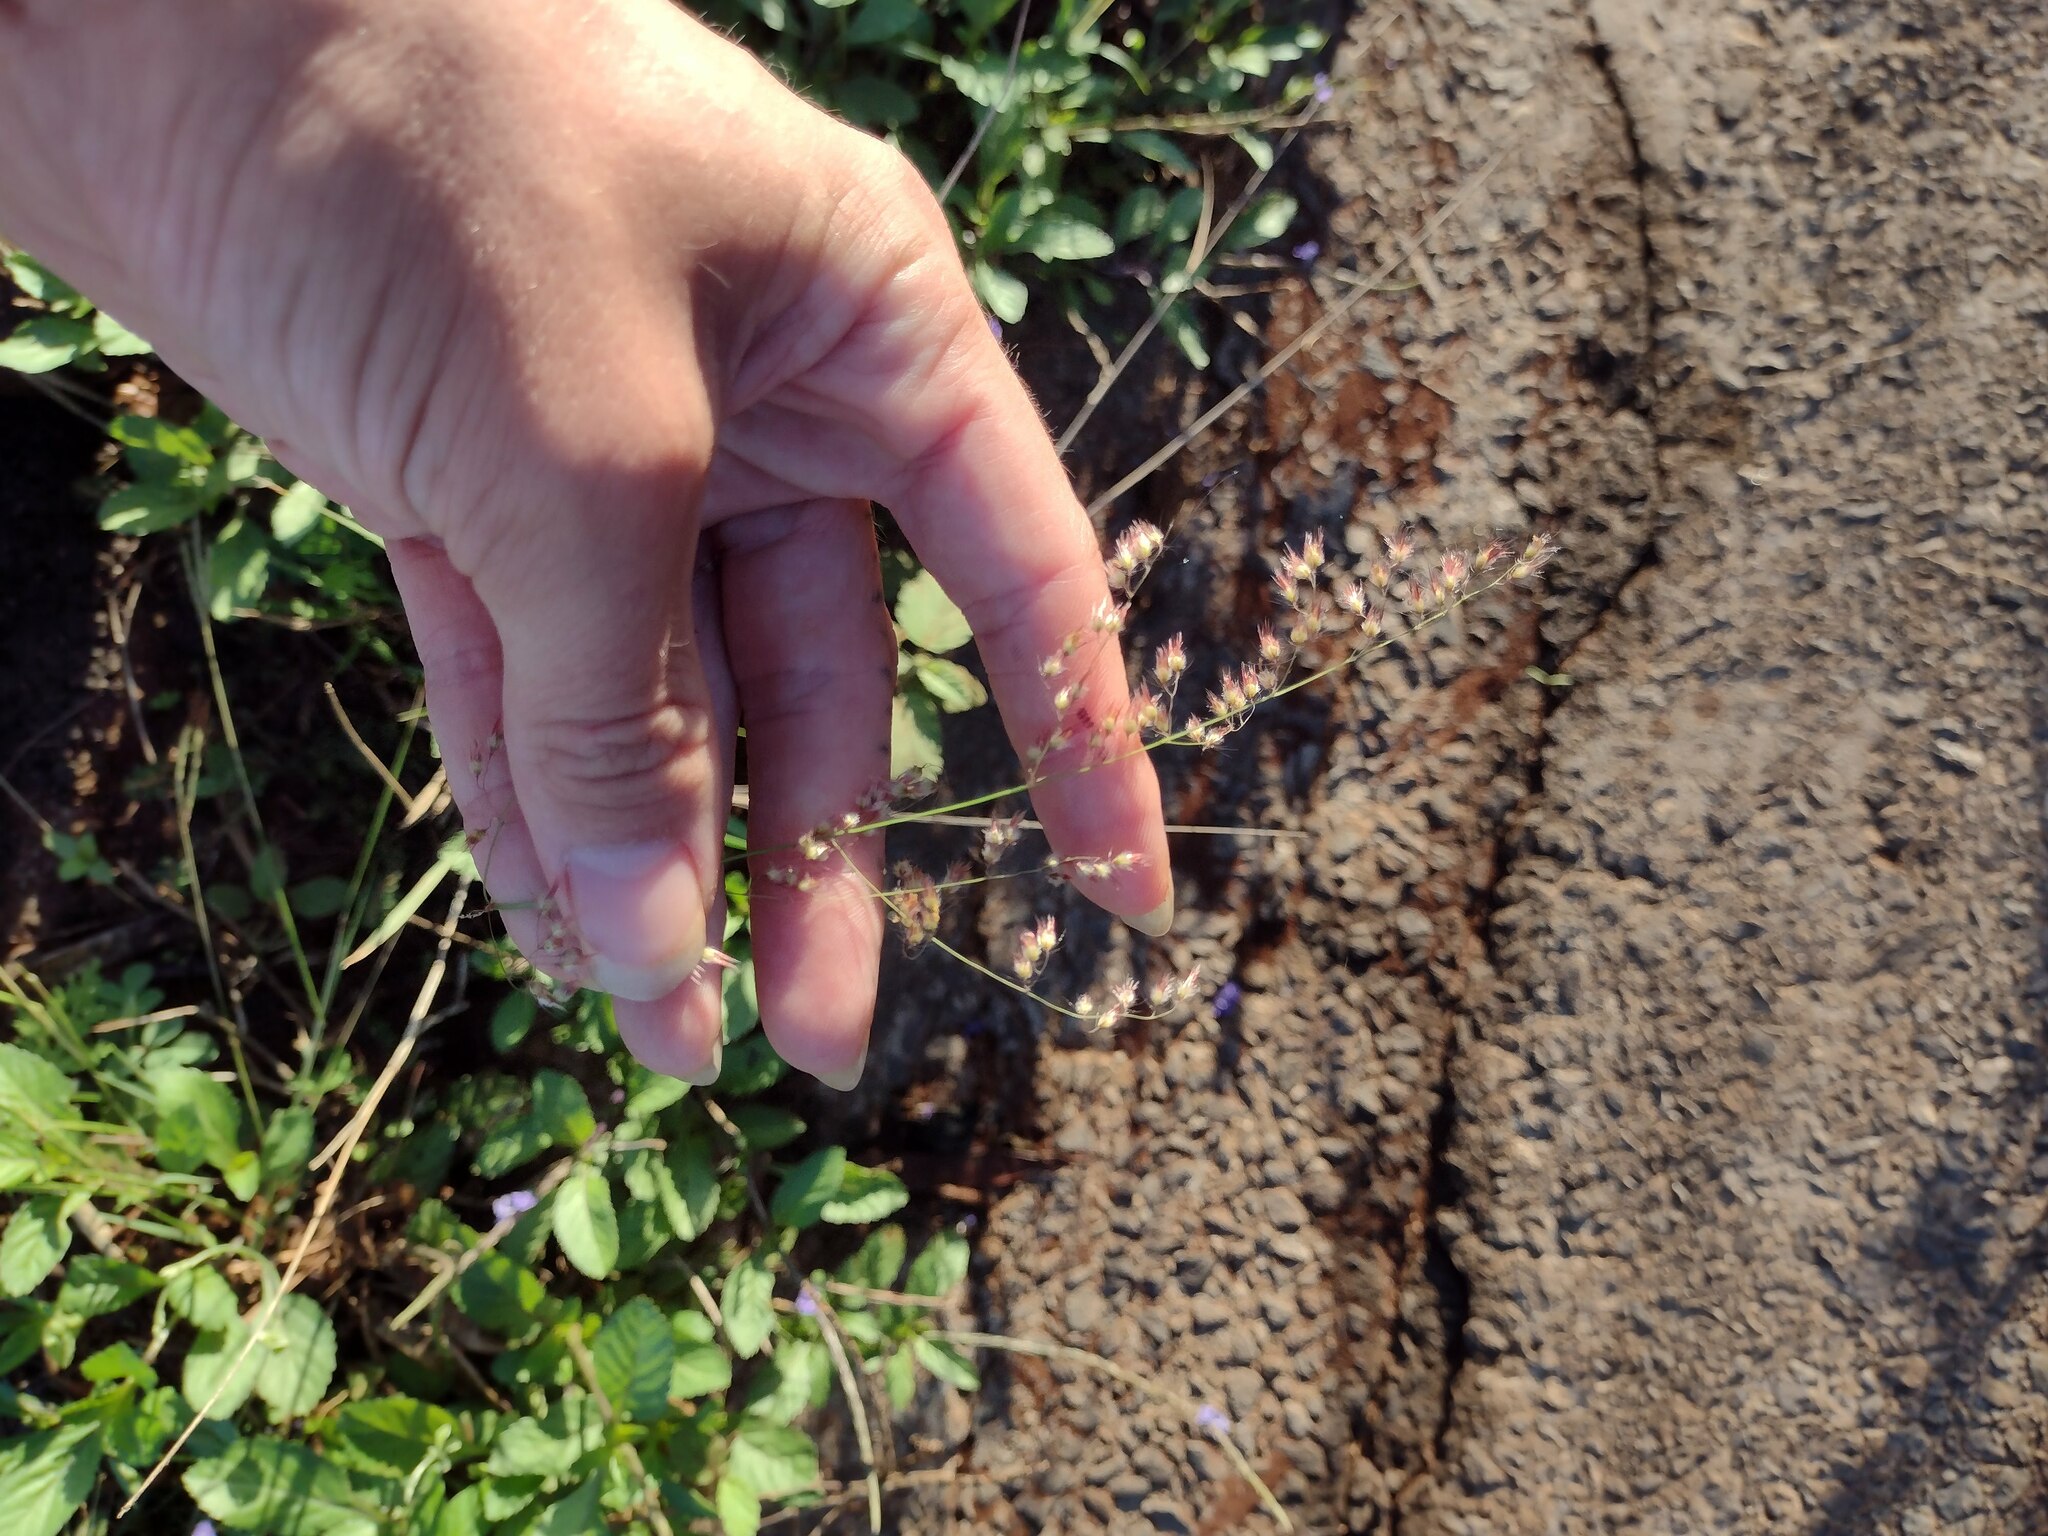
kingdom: Plantae
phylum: Tracheophyta
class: Liliopsida
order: Poales
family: Poaceae
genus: Melinis
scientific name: Melinis repens
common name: Rose natal grass
